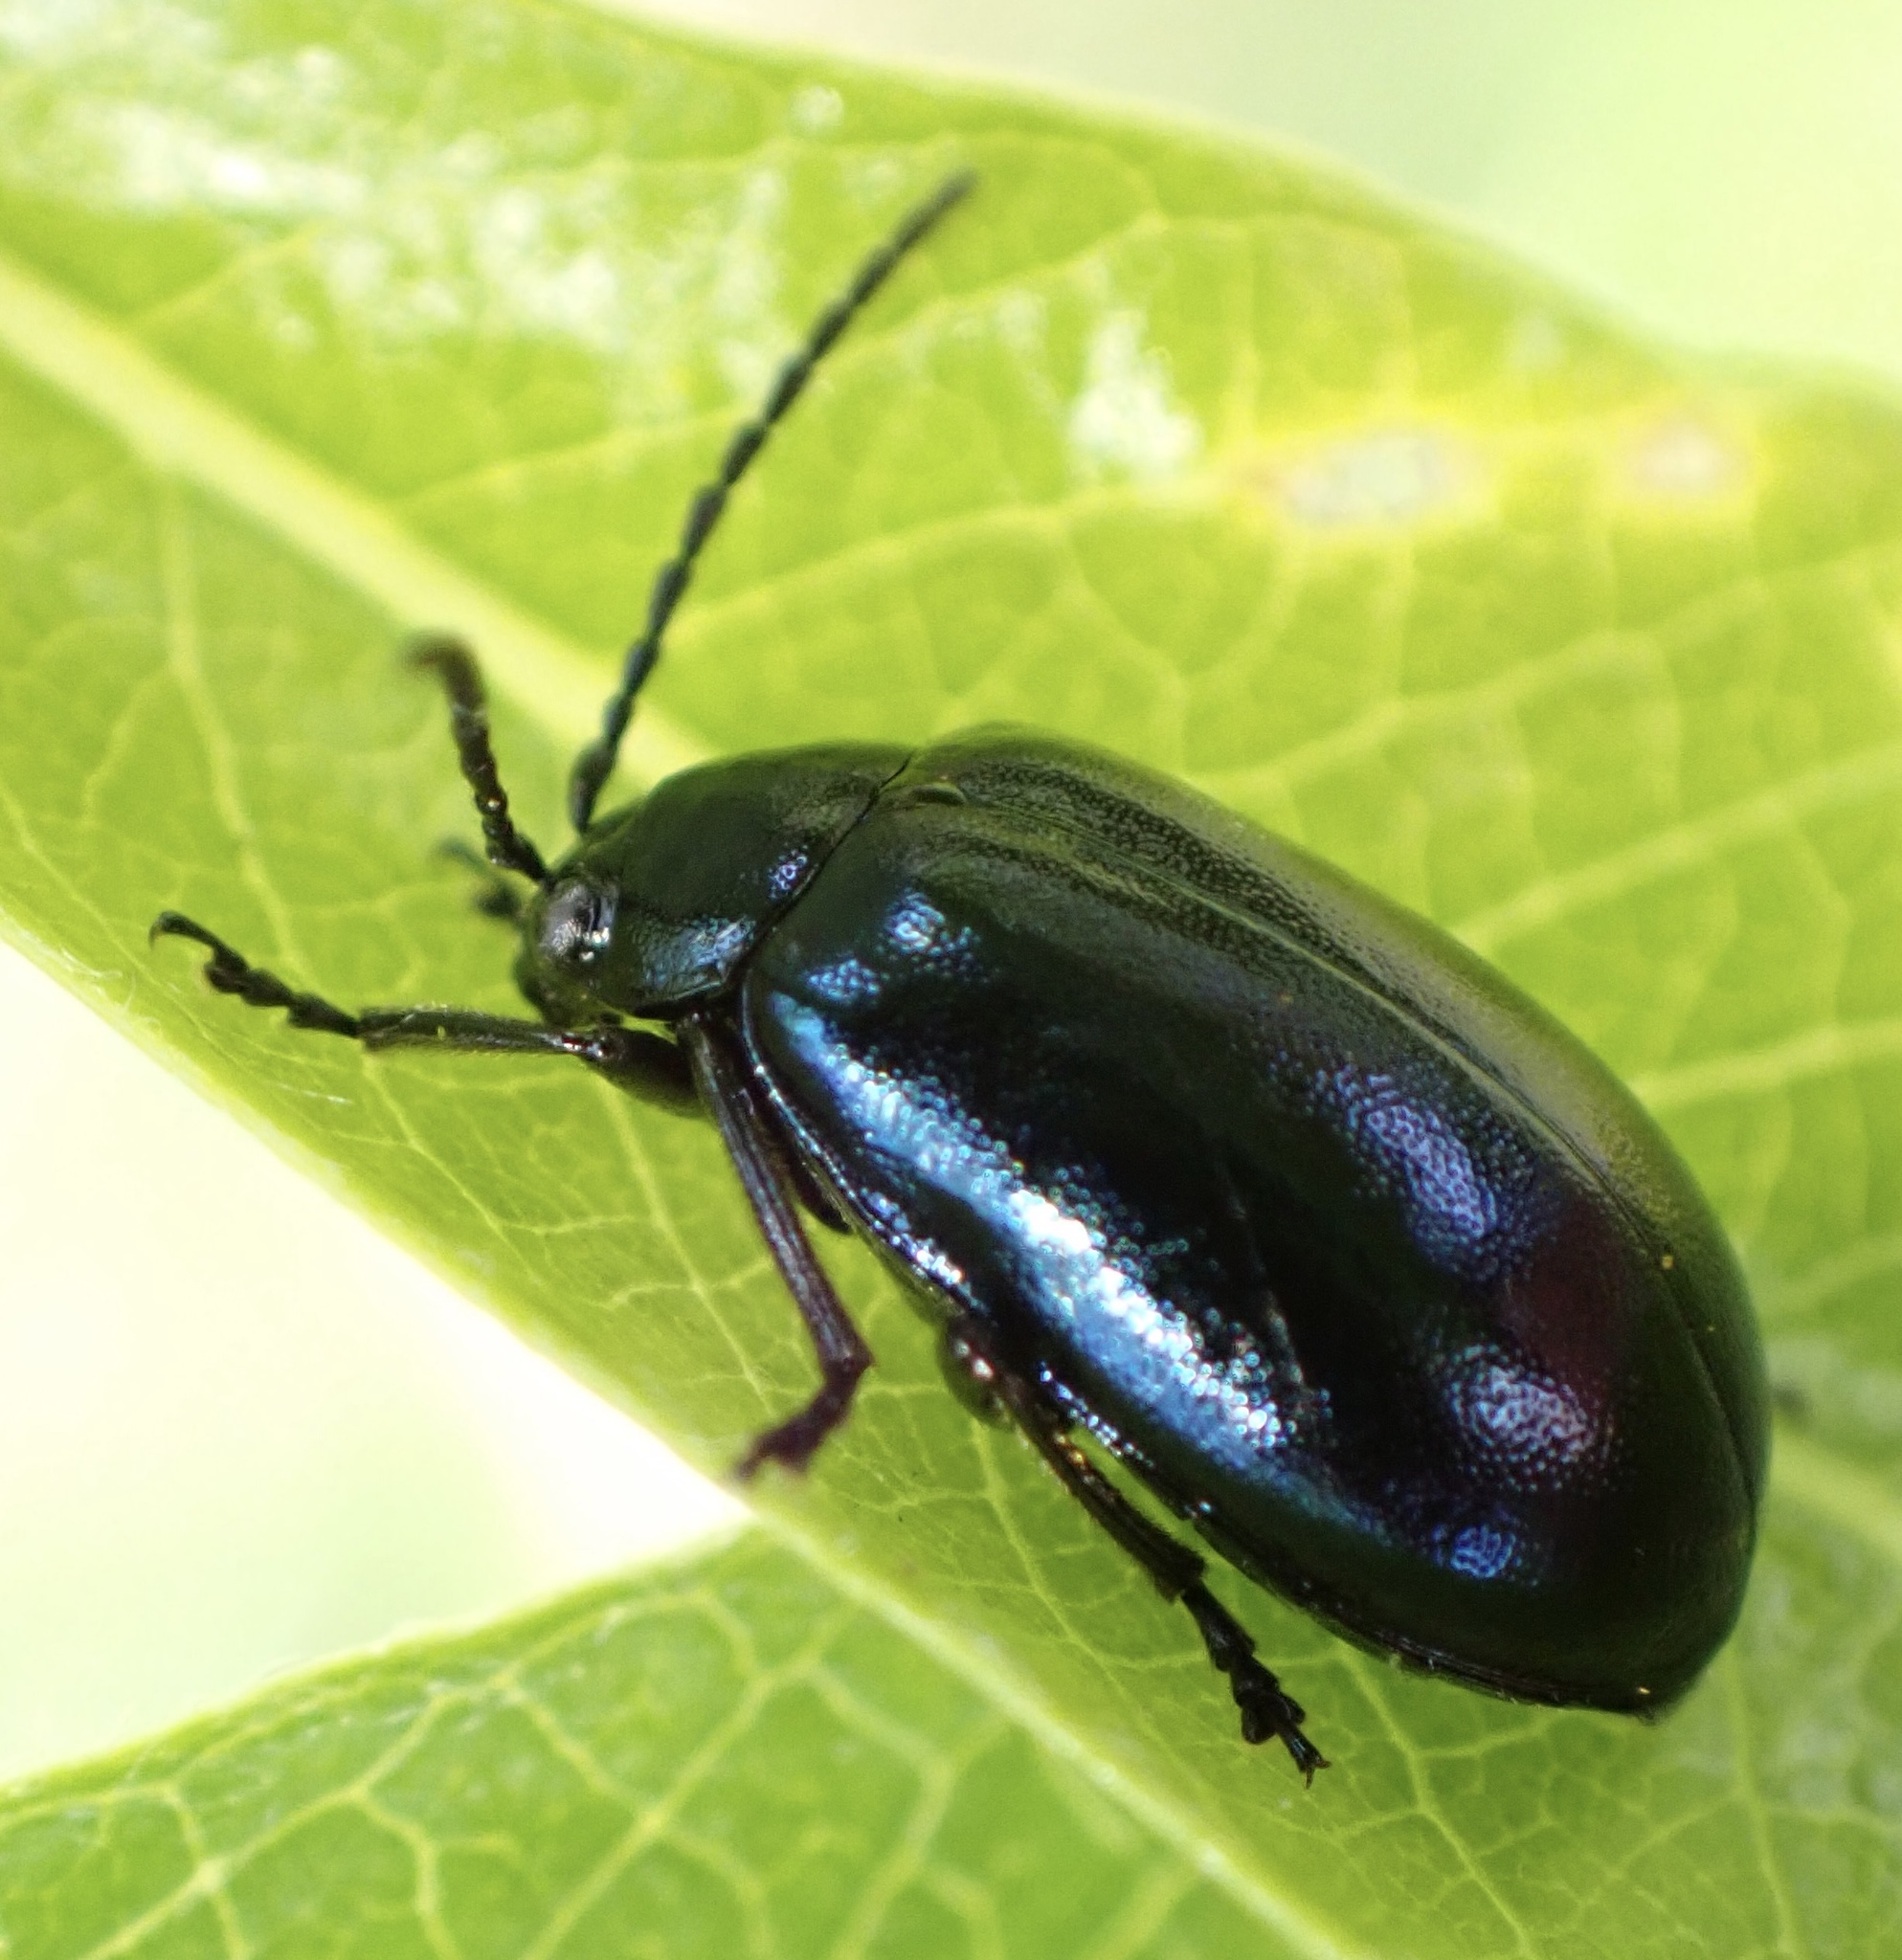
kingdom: Animalia
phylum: Arthropoda
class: Insecta
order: Coleoptera
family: Chrysomelidae
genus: Agelastica
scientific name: Agelastica alni
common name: Alder leaf beetle
